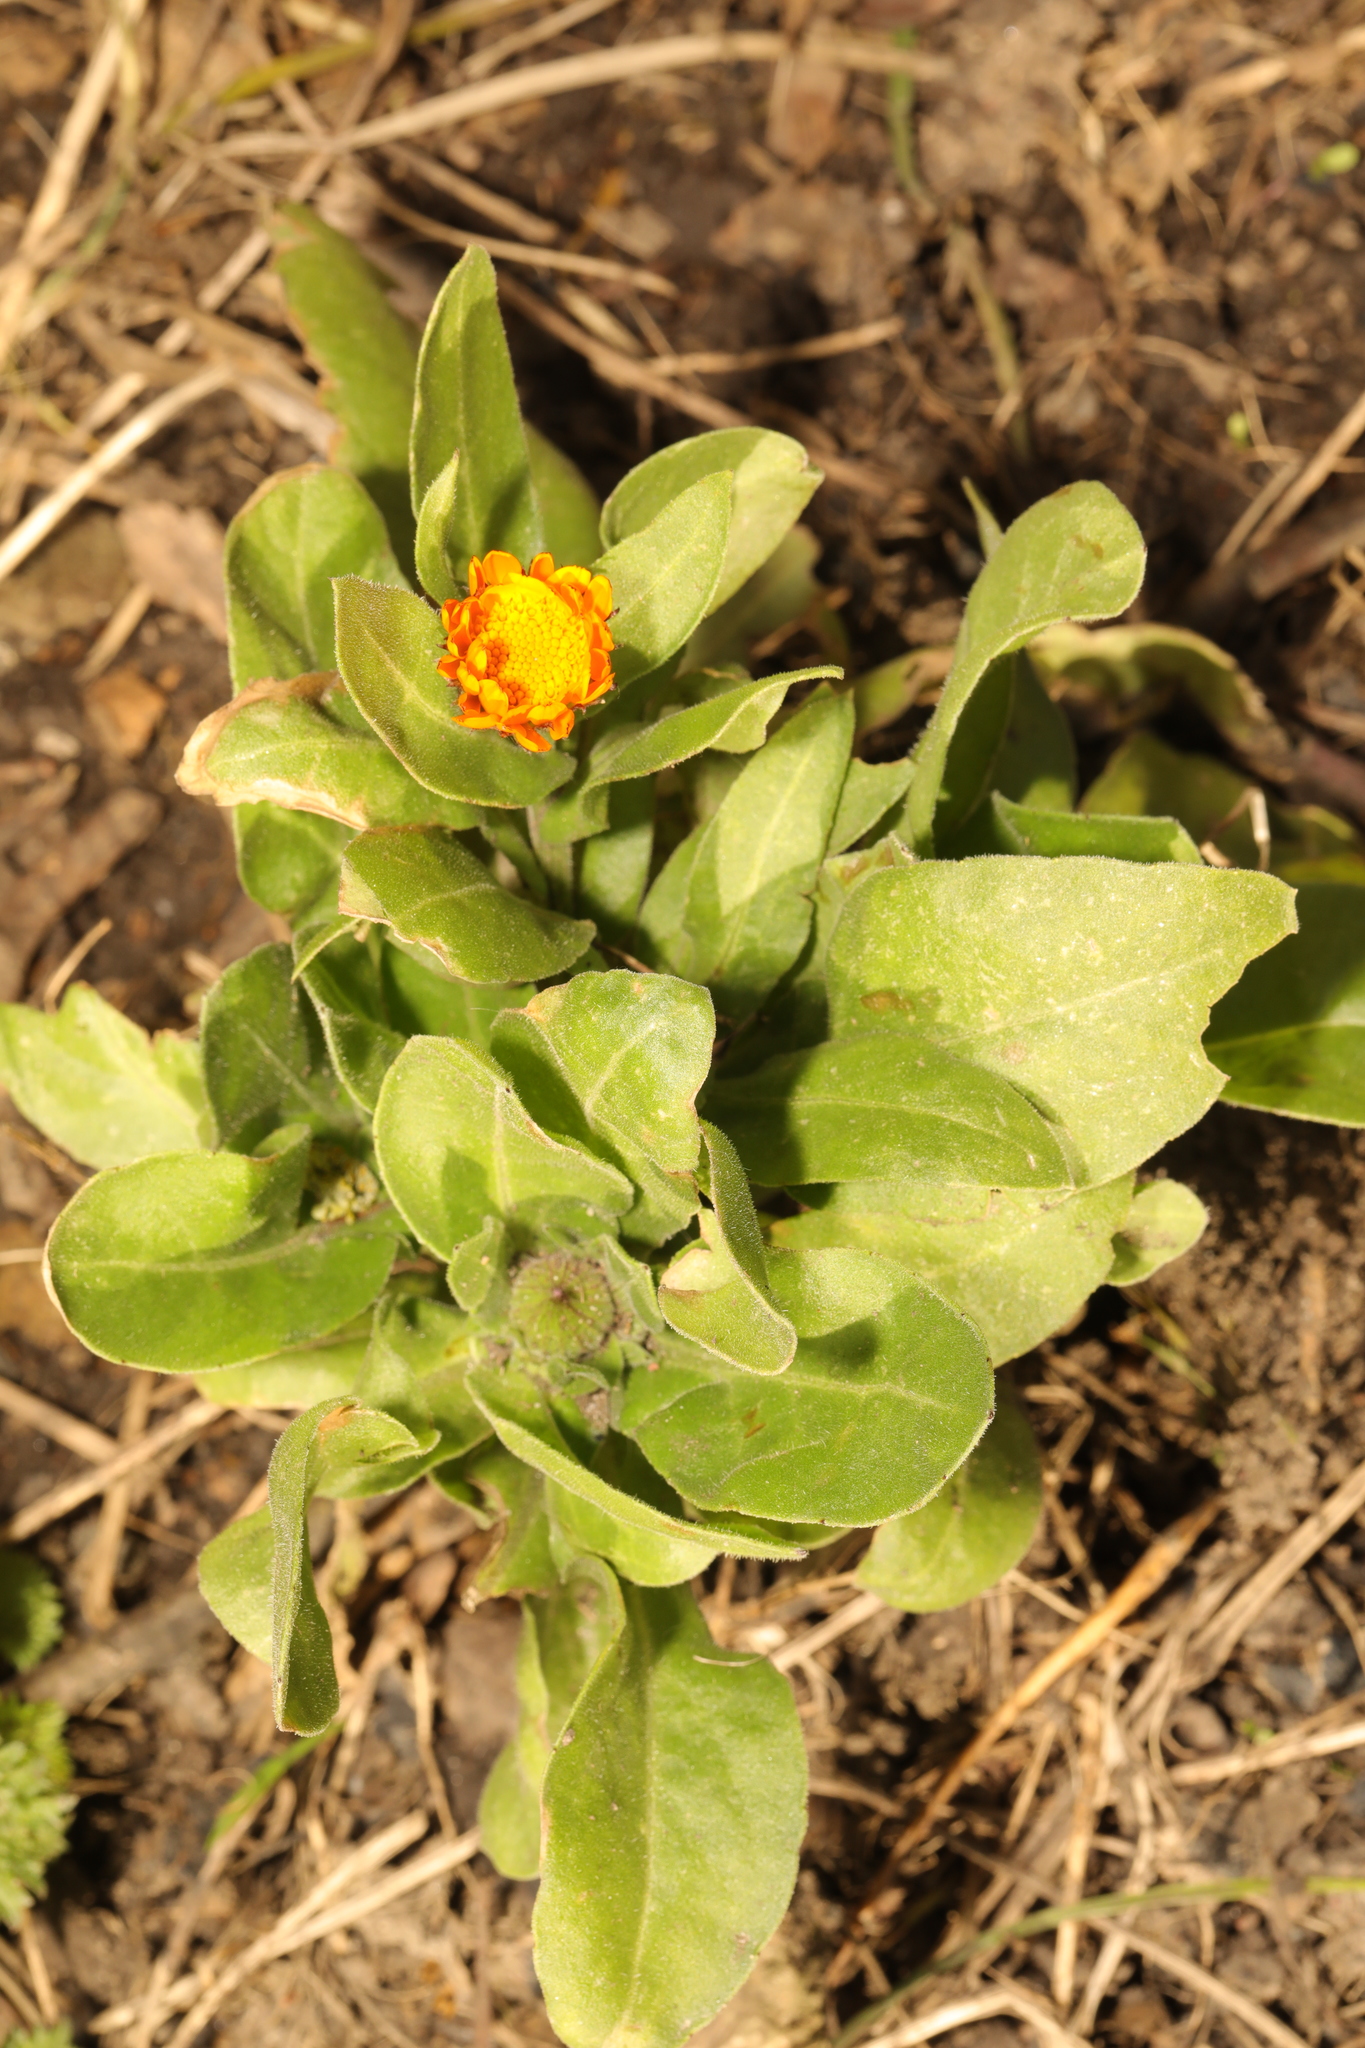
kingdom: Plantae
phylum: Tracheophyta
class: Magnoliopsida
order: Asterales
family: Asteraceae
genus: Calendula
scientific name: Calendula officinalis
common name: Pot marigold
